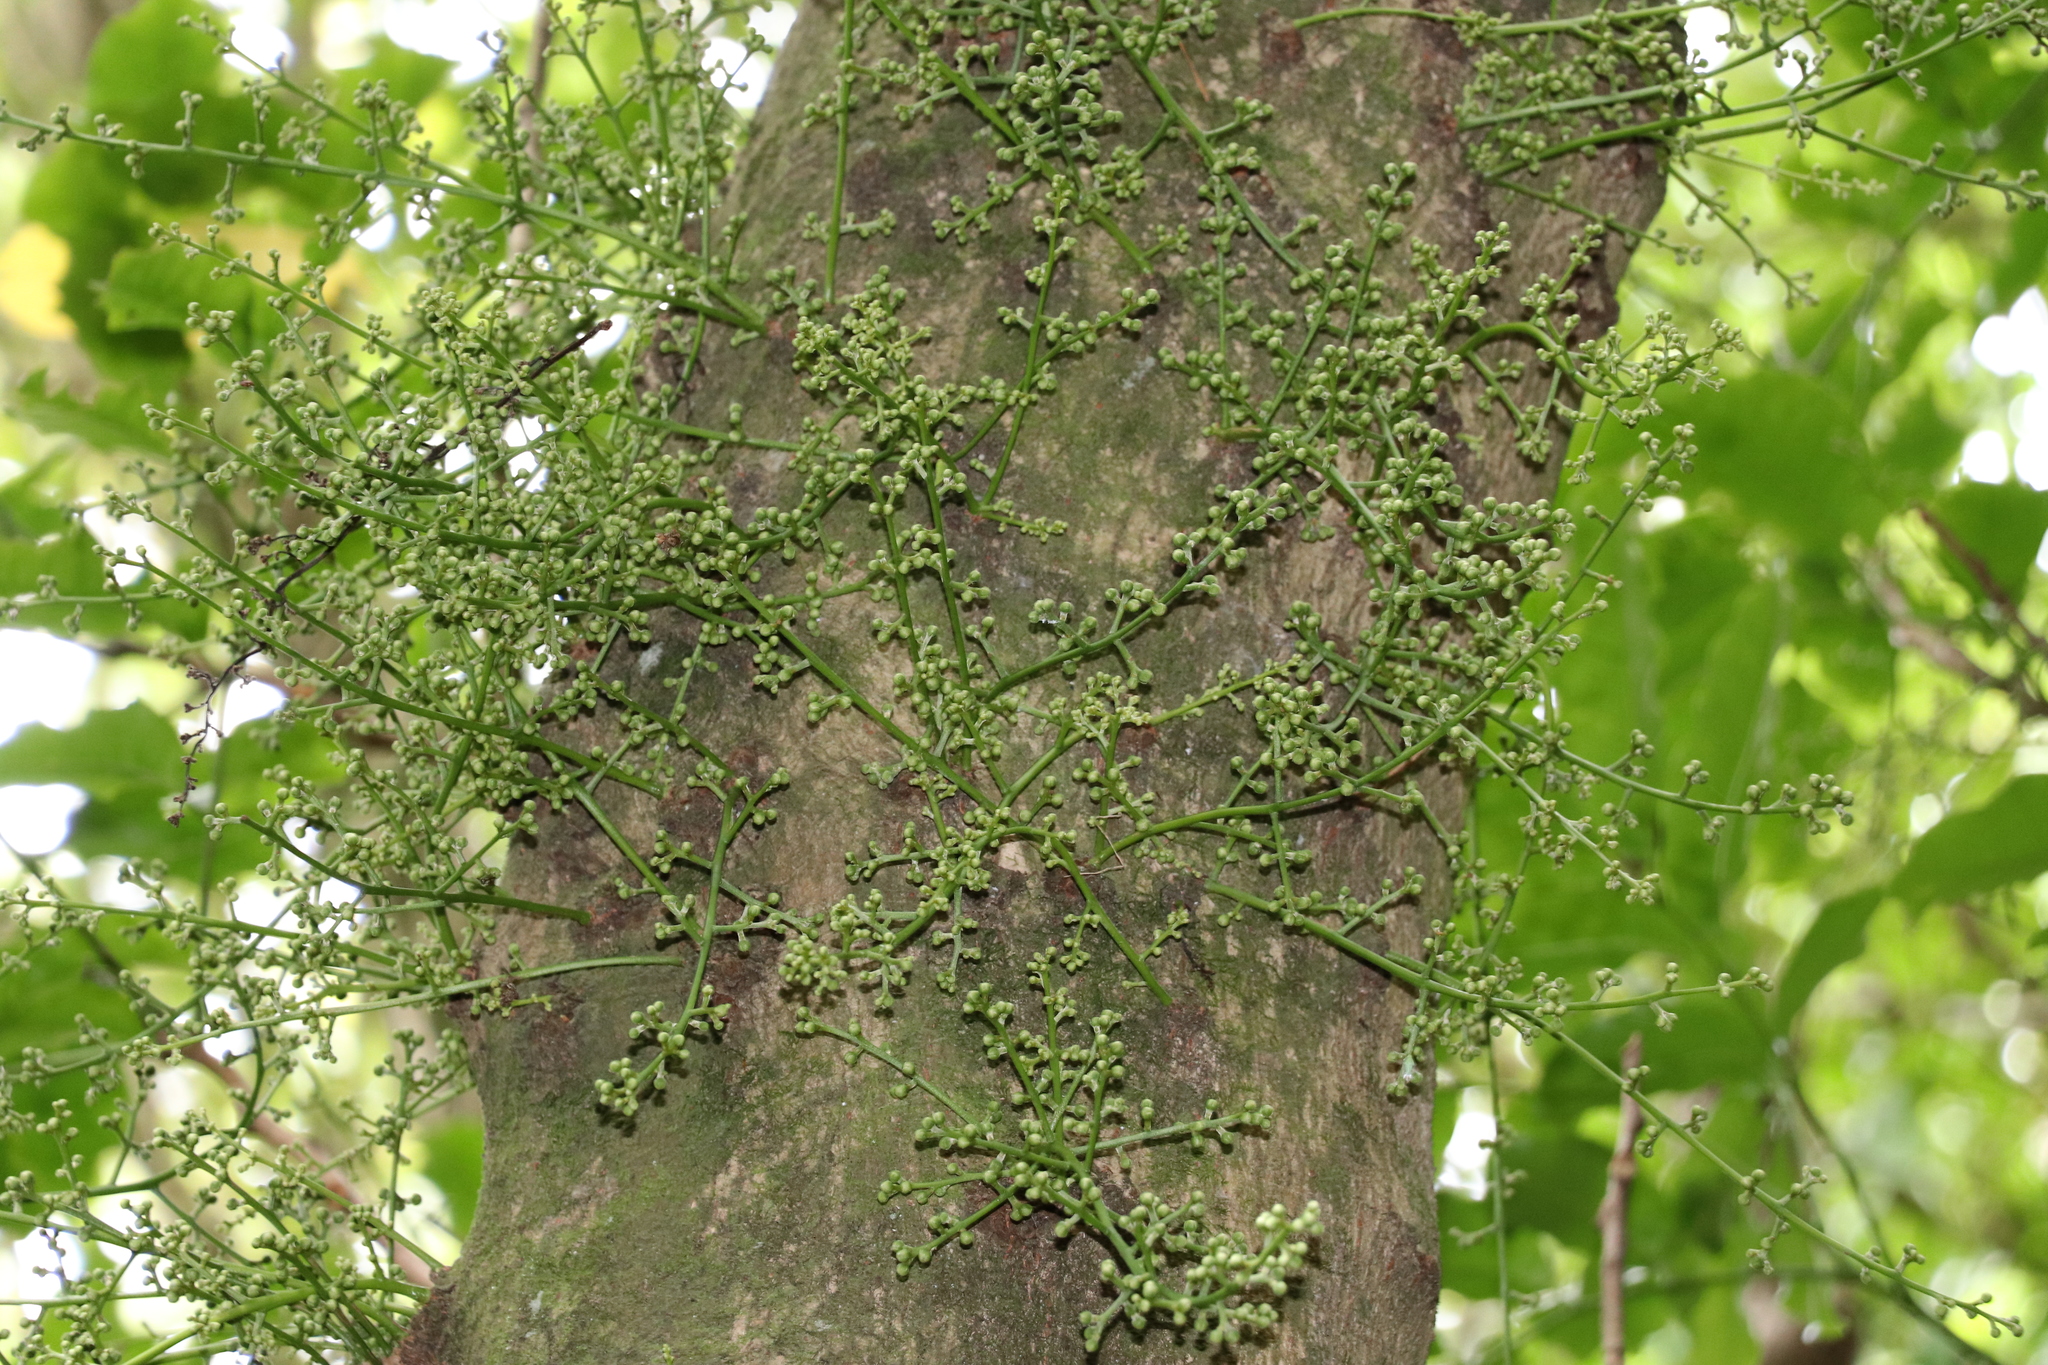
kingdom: Plantae
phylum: Tracheophyta
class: Magnoliopsida
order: Sapindales
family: Meliaceae
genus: Didymocheton
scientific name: Didymocheton spectabilis
